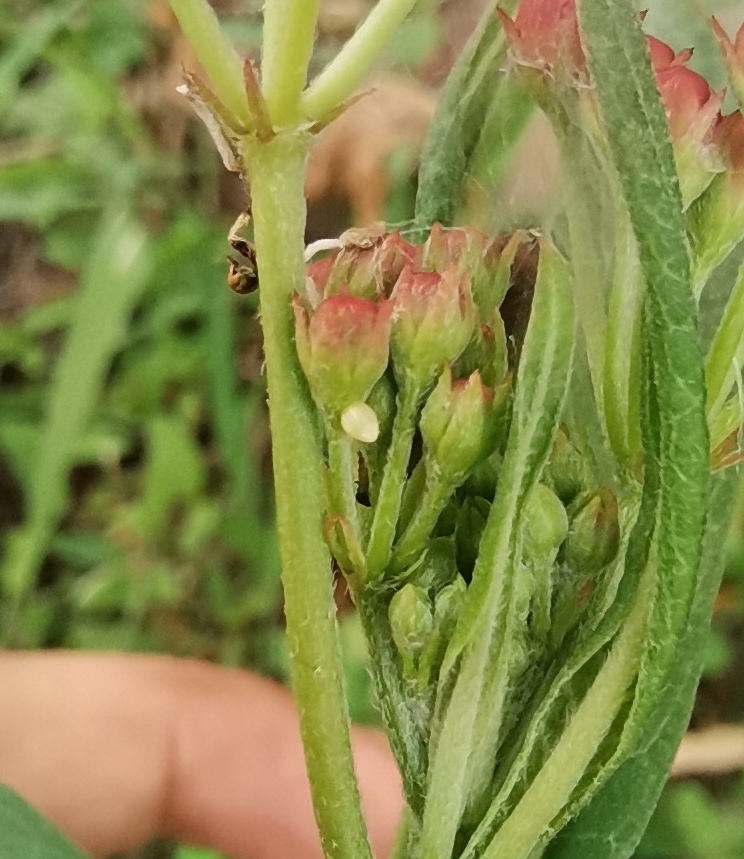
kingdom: Plantae
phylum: Tracheophyta
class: Magnoliopsida
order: Gentianales
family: Apocynaceae
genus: Asclepias
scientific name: Asclepias curassavica
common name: Bloodflower
